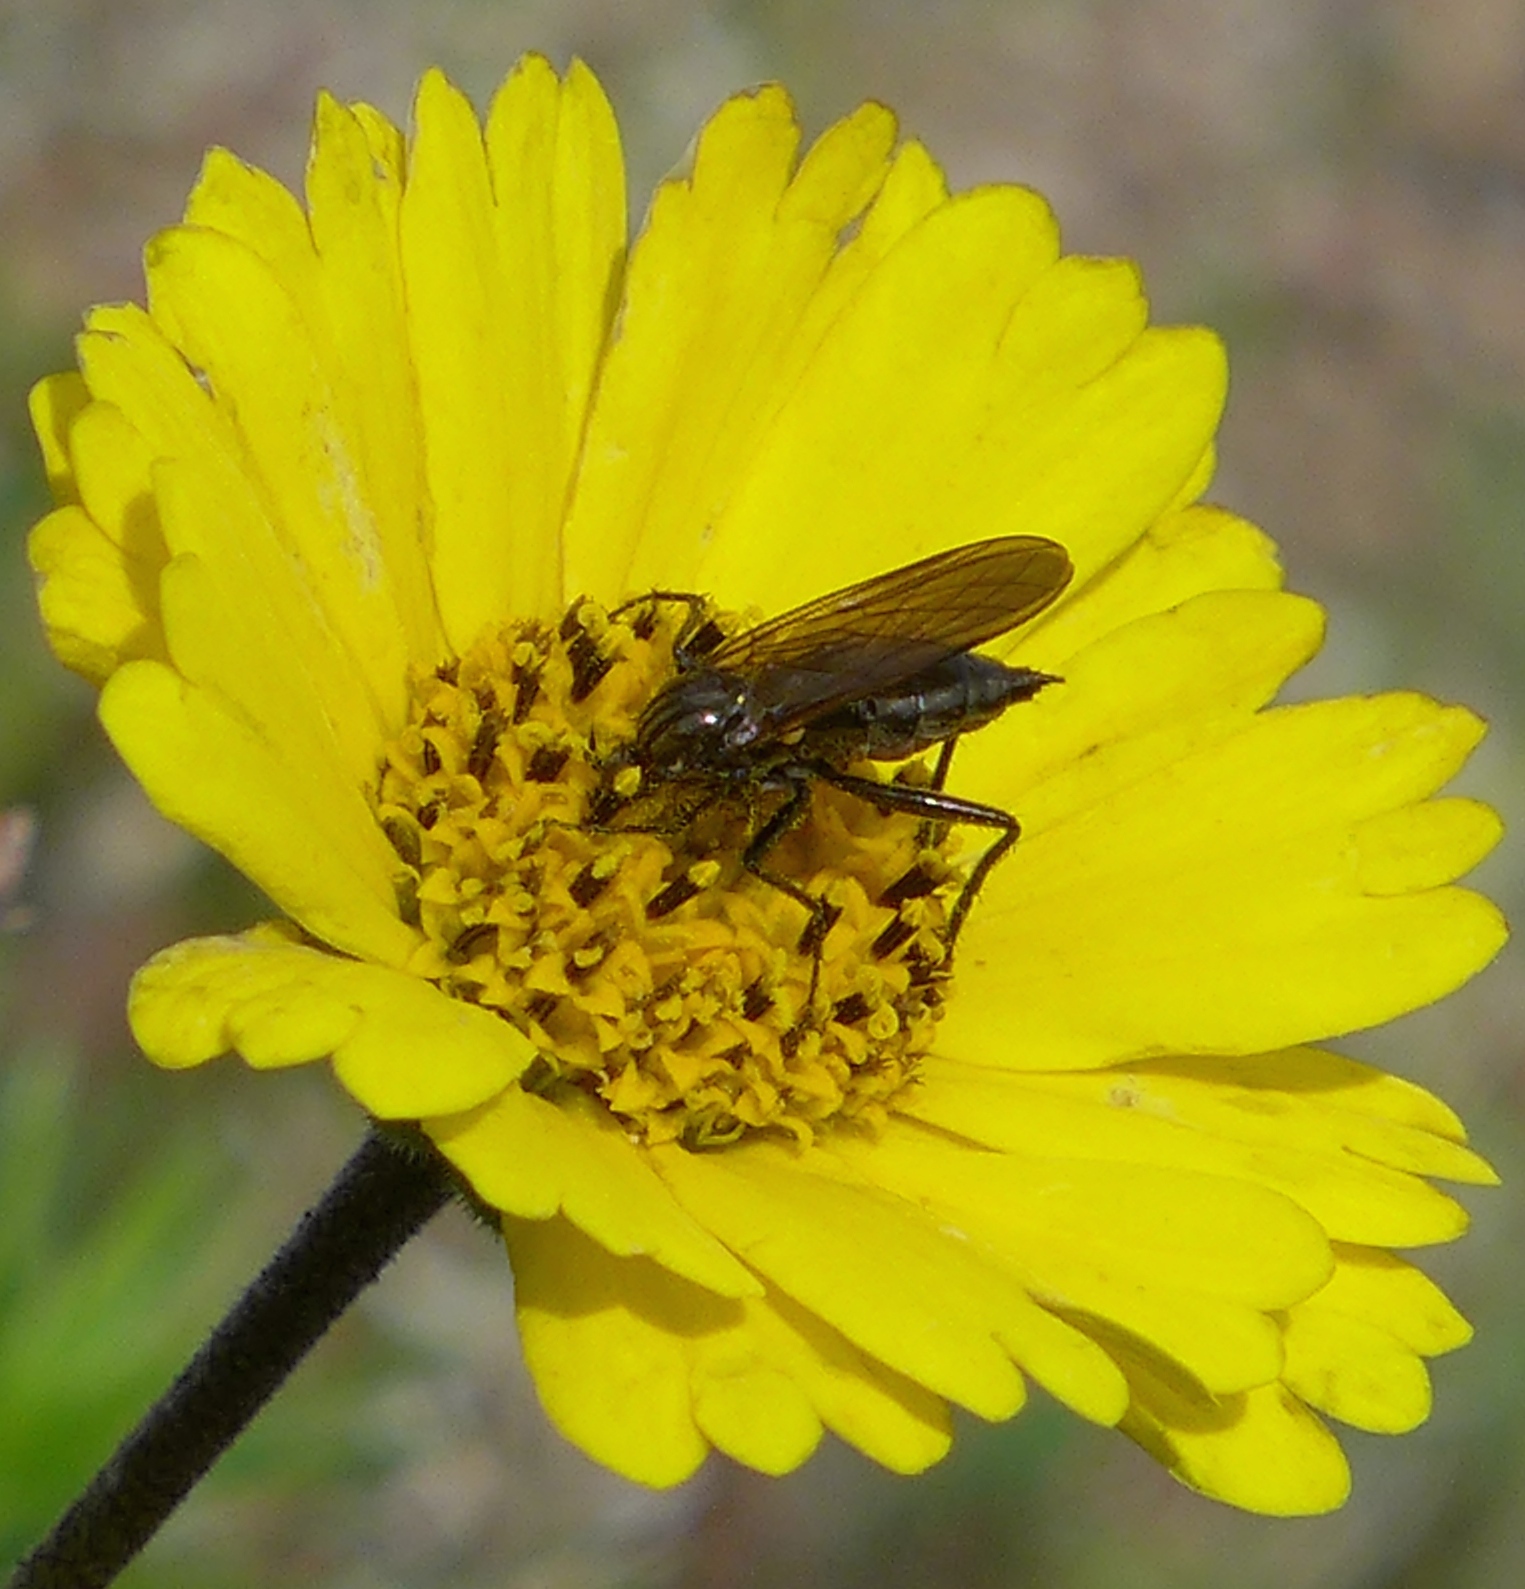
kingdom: Plantae
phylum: Tracheophyta
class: Magnoliopsida
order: Asterales
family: Asteraceae
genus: Layia
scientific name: Layia platyglossa
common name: Tidy-tips
